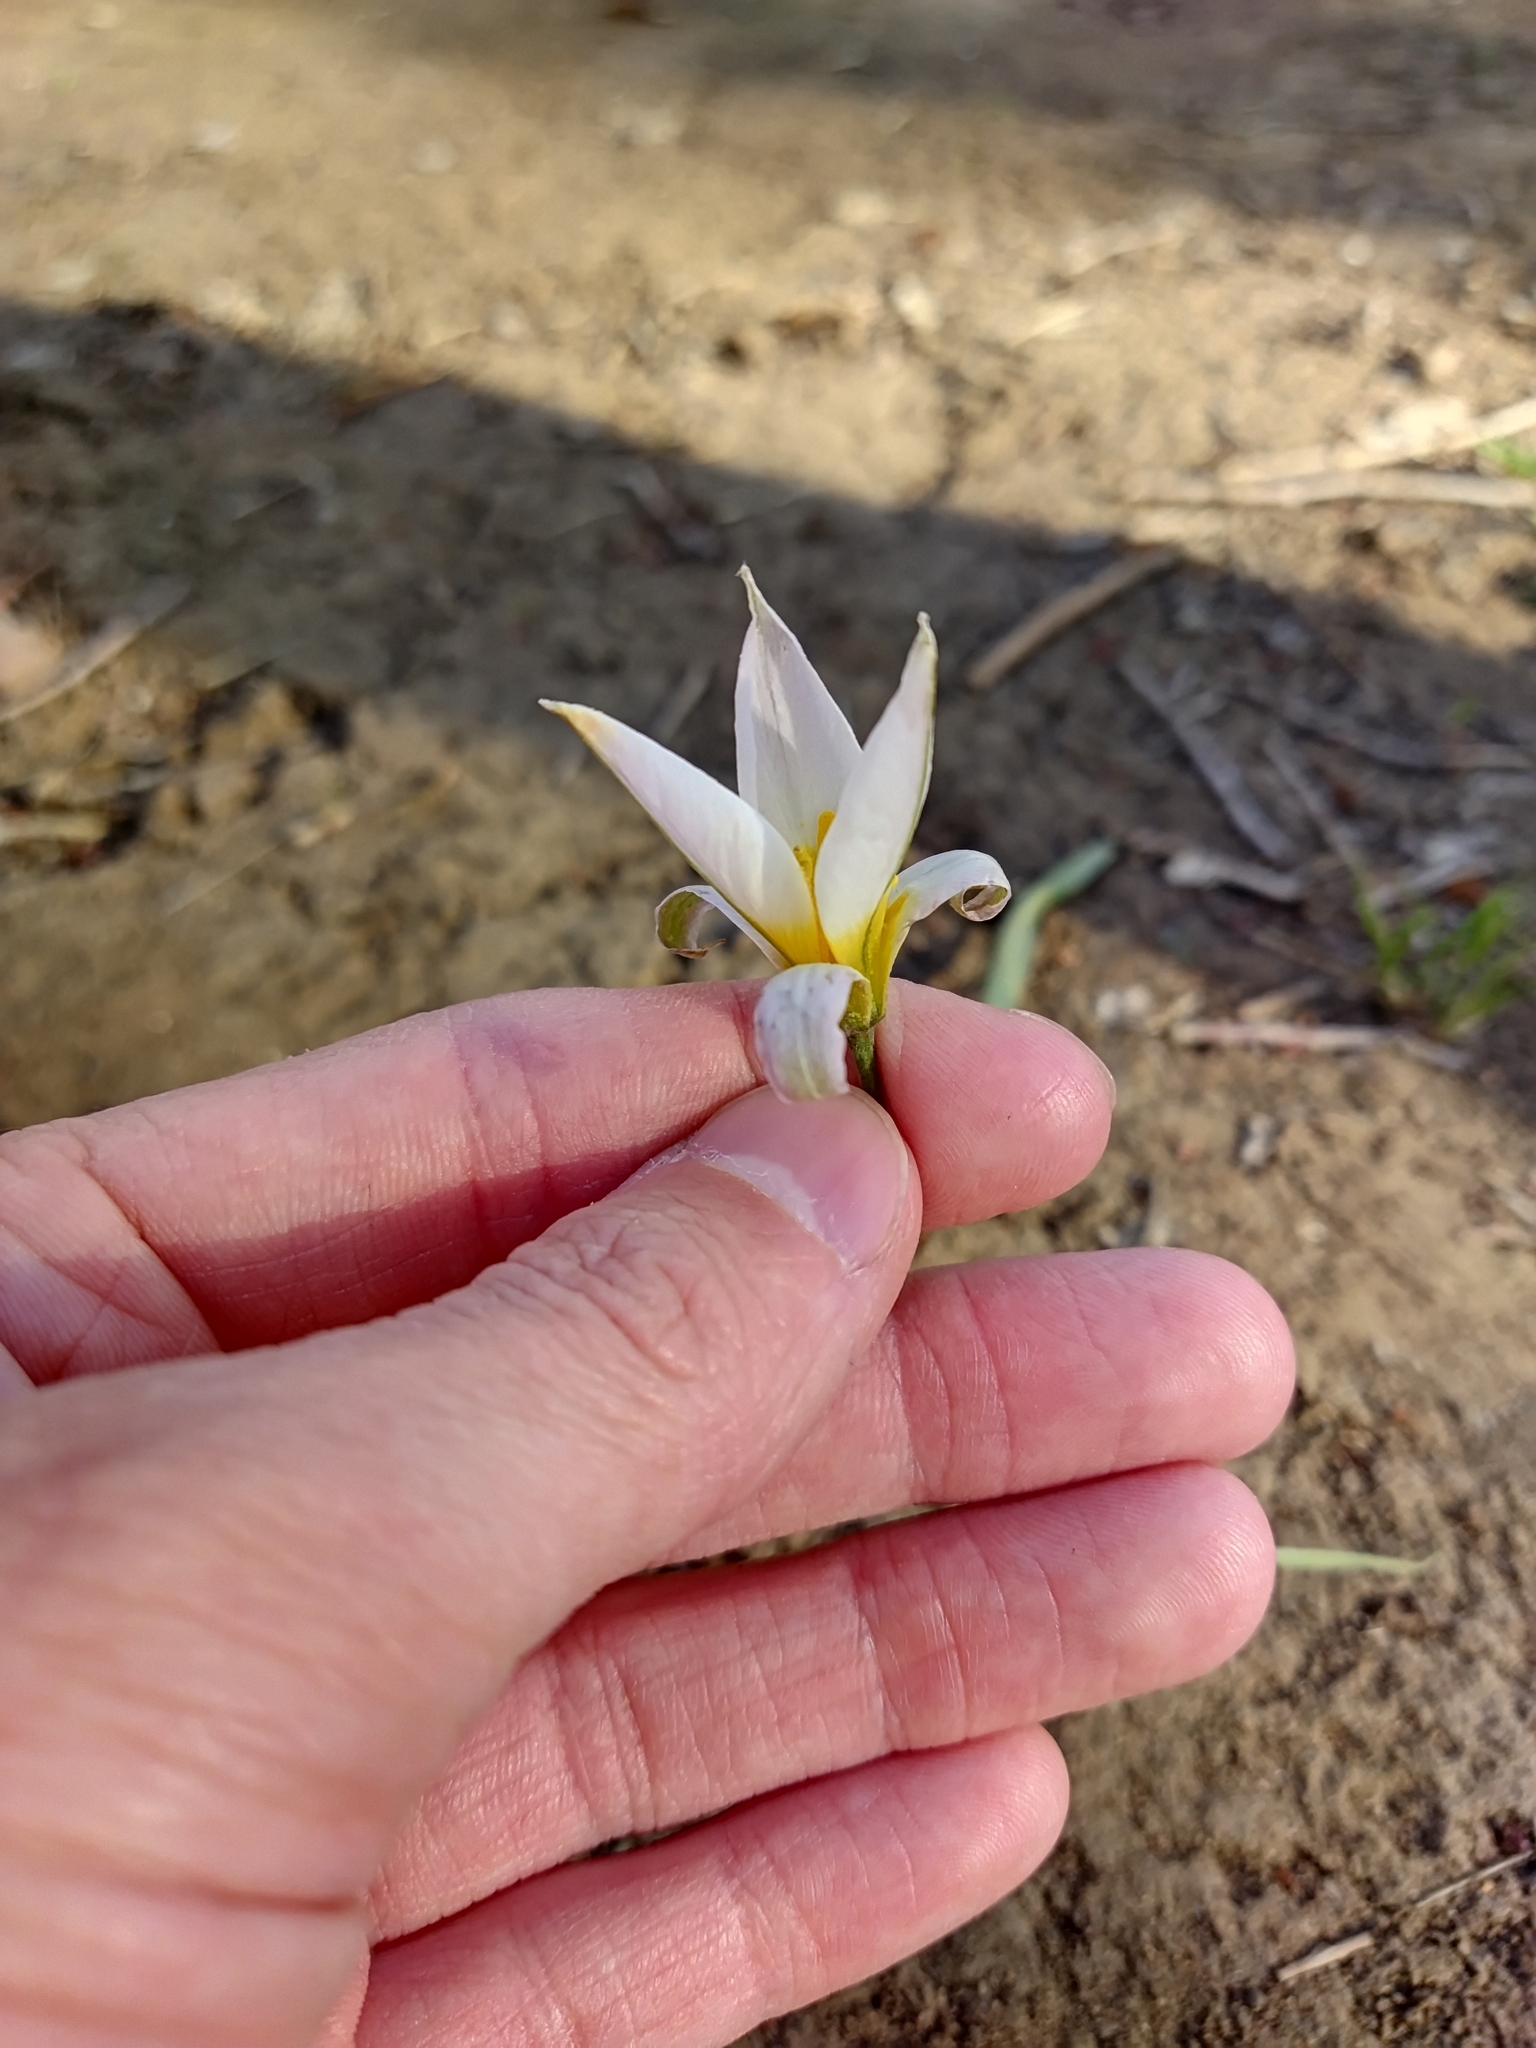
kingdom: Plantae
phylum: Tracheophyta
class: Liliopsida
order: Liliales
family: Liliaceae
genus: Tulipa
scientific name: Tulipa patens
